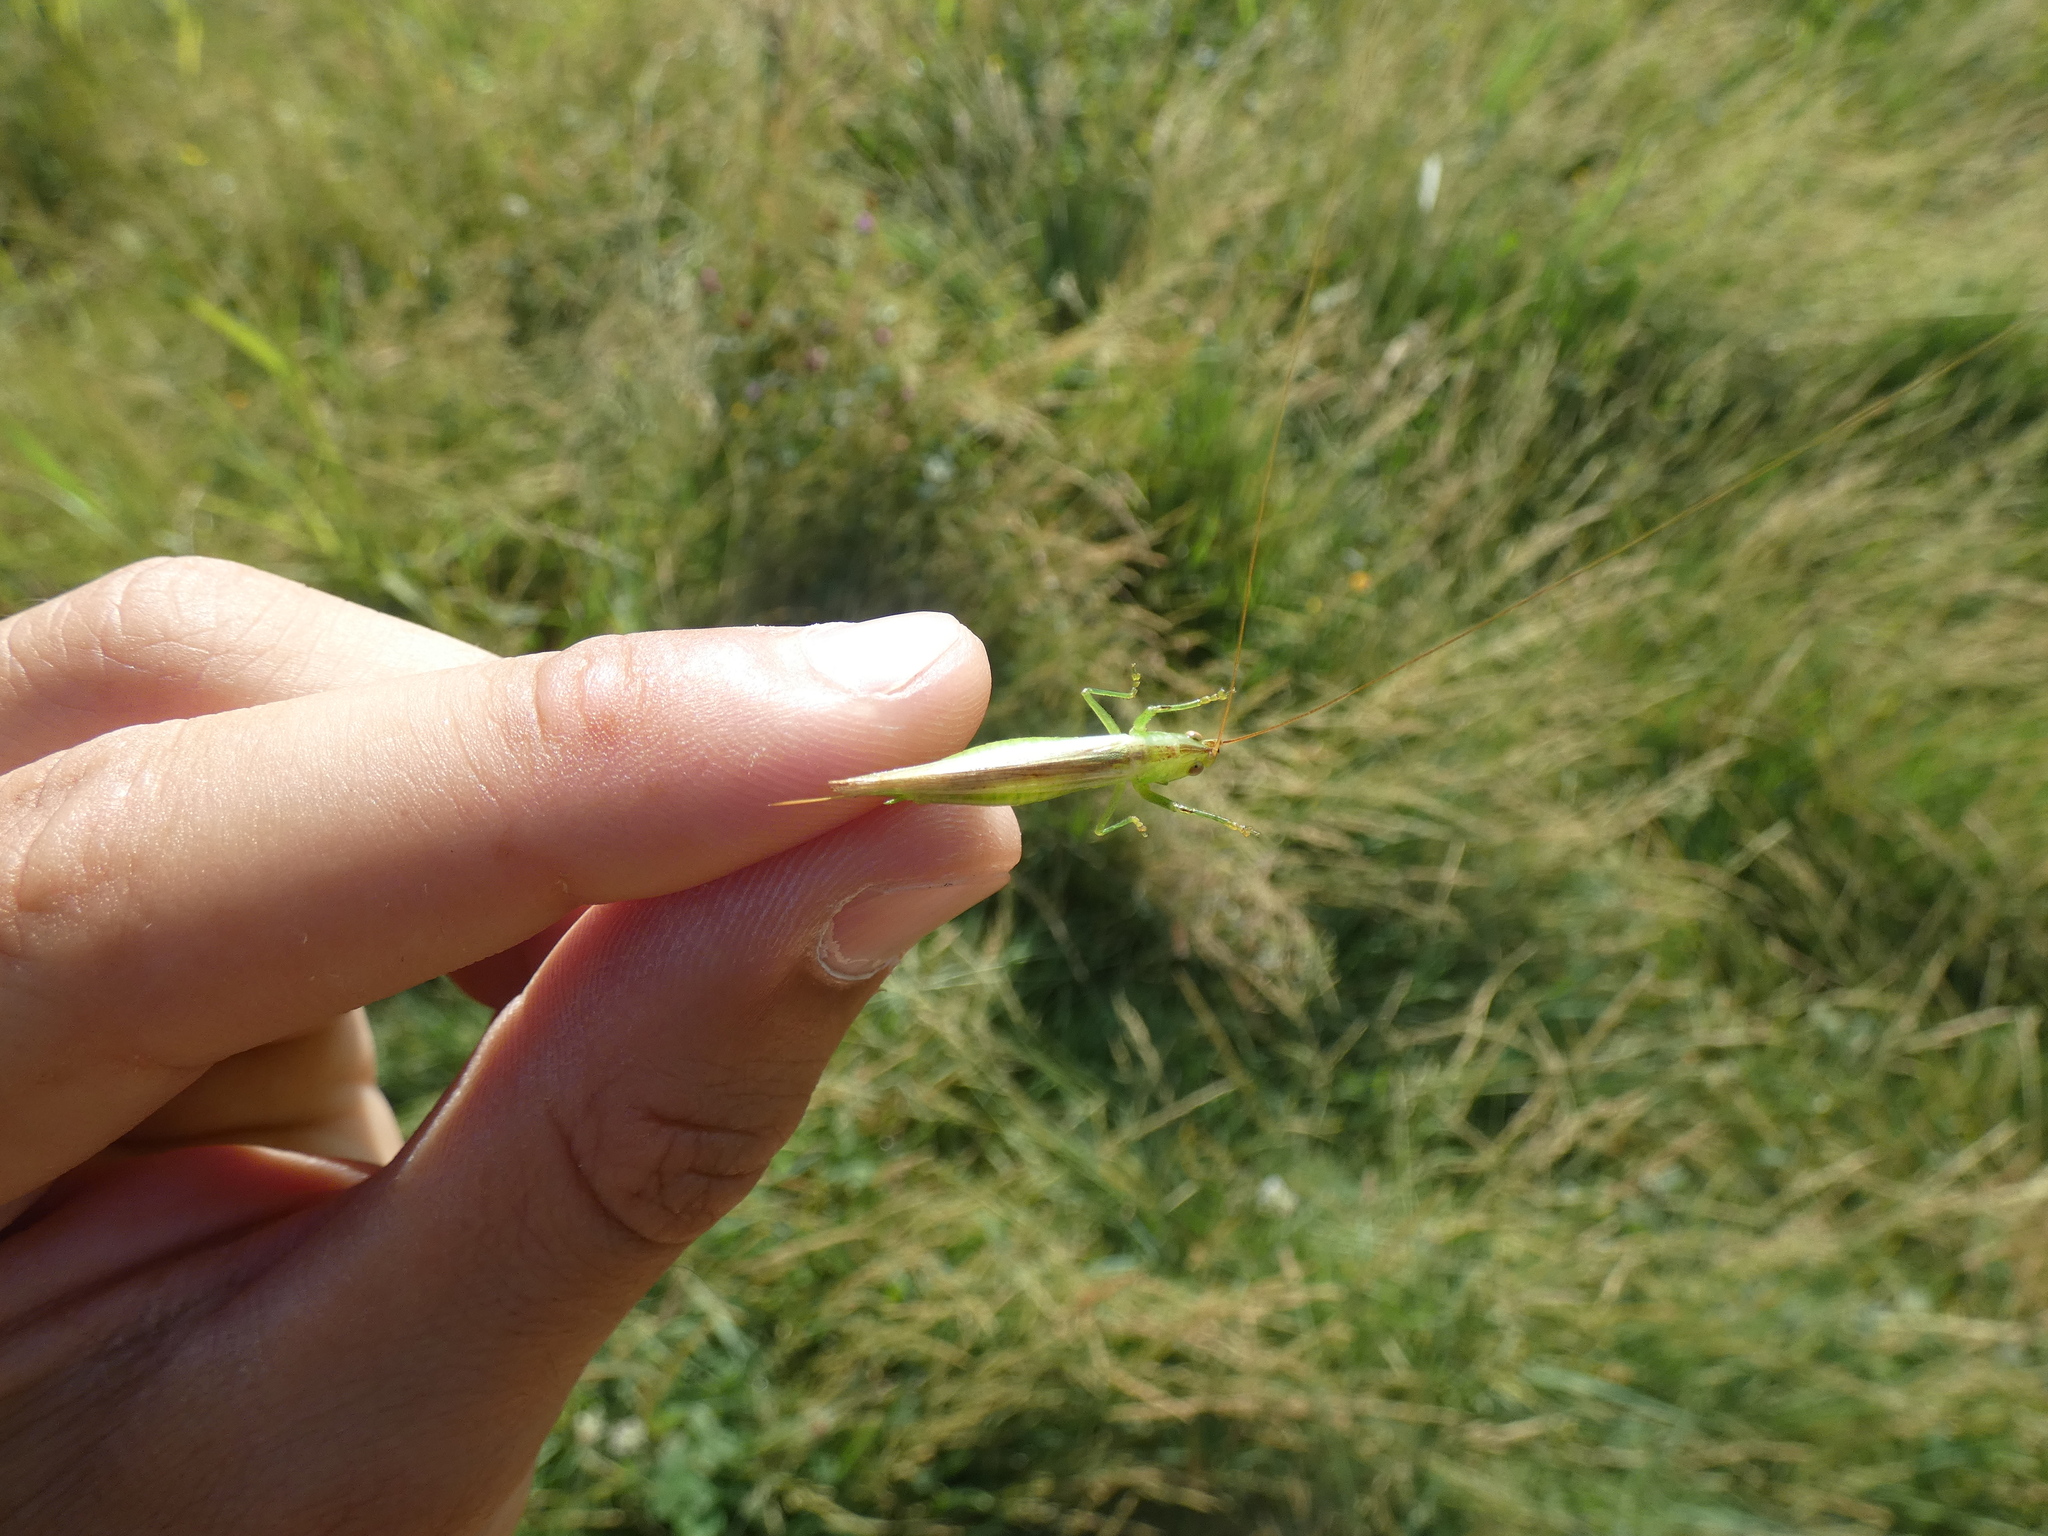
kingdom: Animalia
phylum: Arthropoda
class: Insecta
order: Orthoptera
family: Tettigoniidae
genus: Conocephalus
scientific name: Conocephalus conocephalus
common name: African meadow katydid
